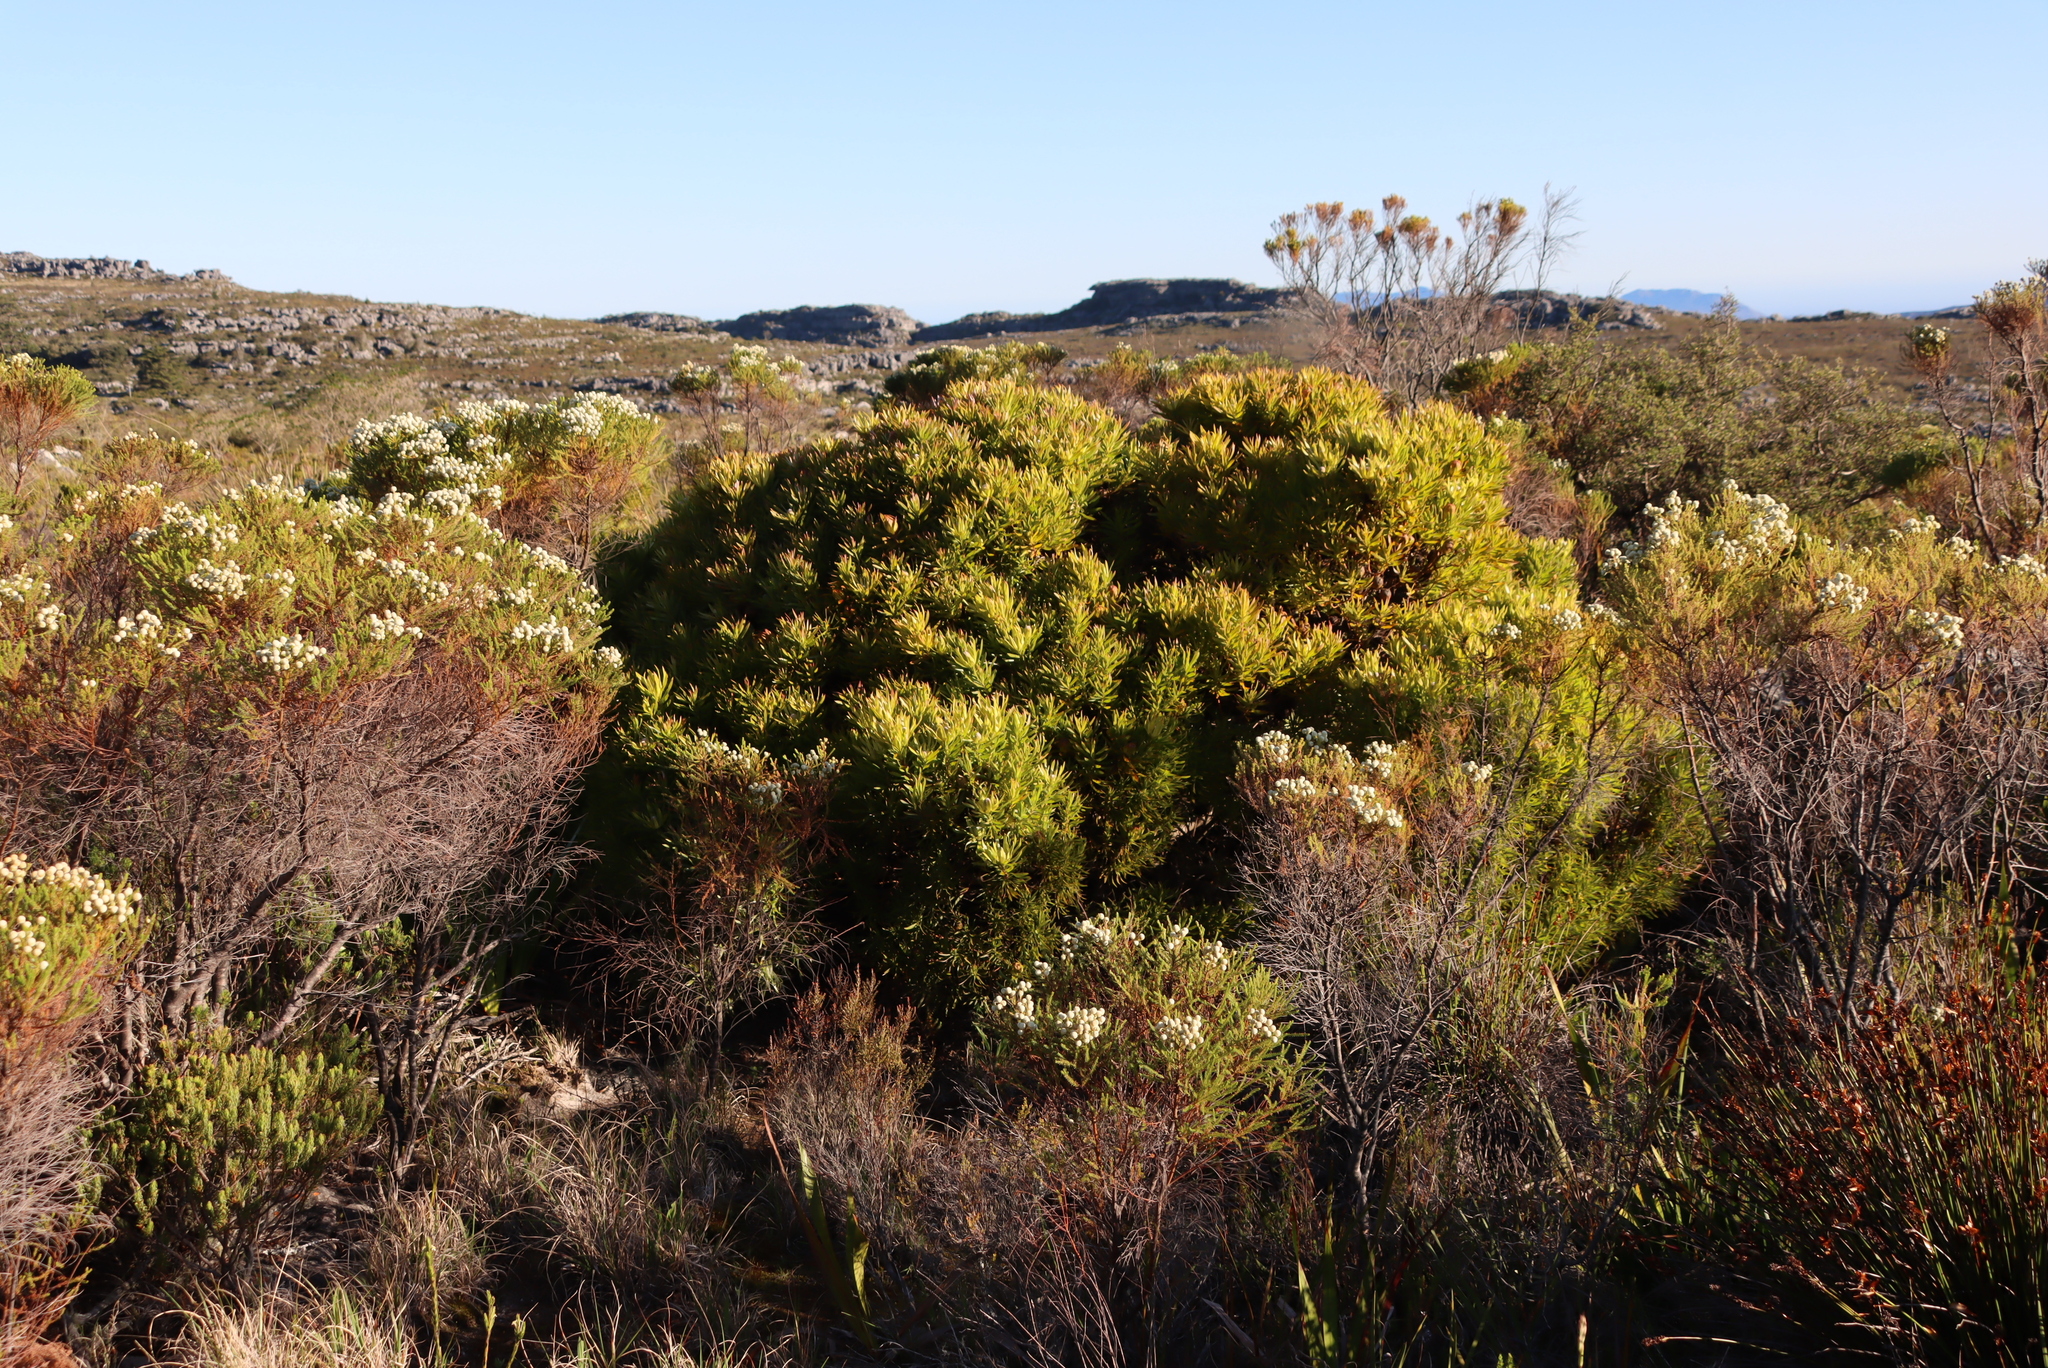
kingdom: Plantae
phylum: Tracheophyta
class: Magnoliopsida
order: Proteales
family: Proteaceae
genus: Leucadendron
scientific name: Leucadendron xanthoconus
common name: Sickle-leaf conebush
